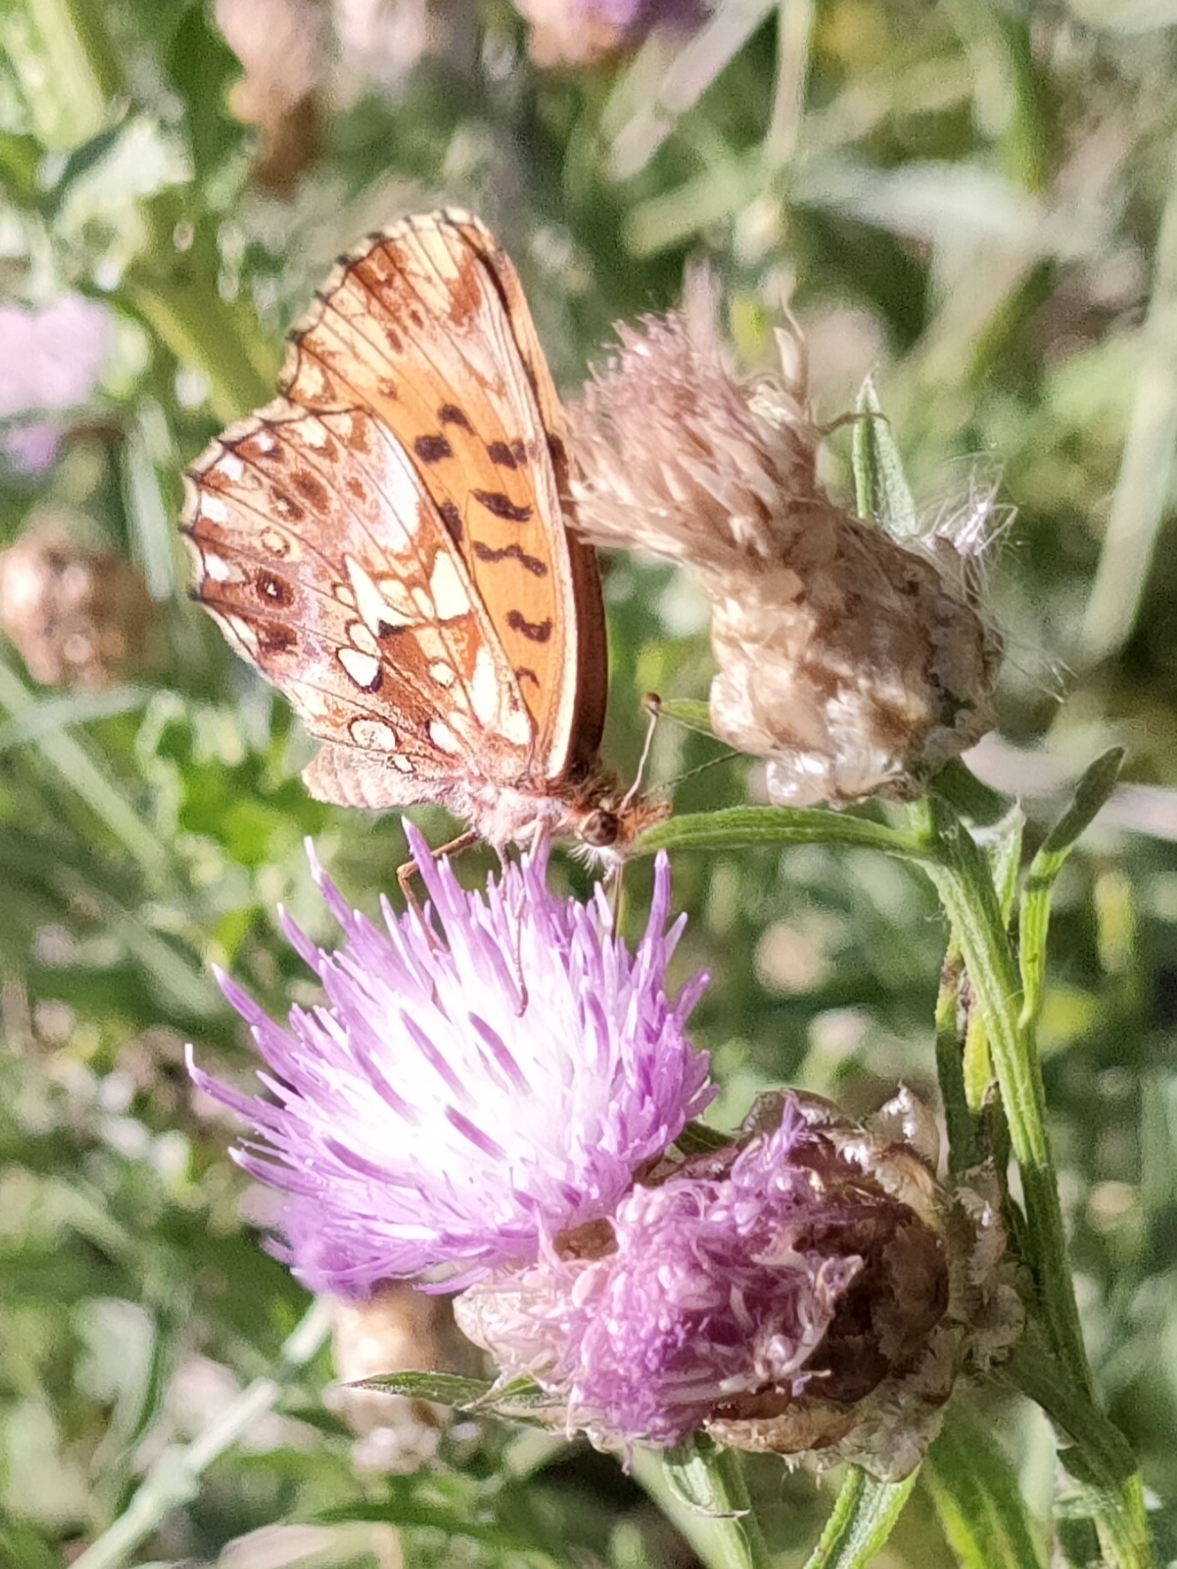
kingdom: Animalia
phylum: Arthropoda
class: Insecta
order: Lepidoptera
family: Nymphalidae
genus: Boloria
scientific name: Boloria dia
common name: Weaver's fritillary
